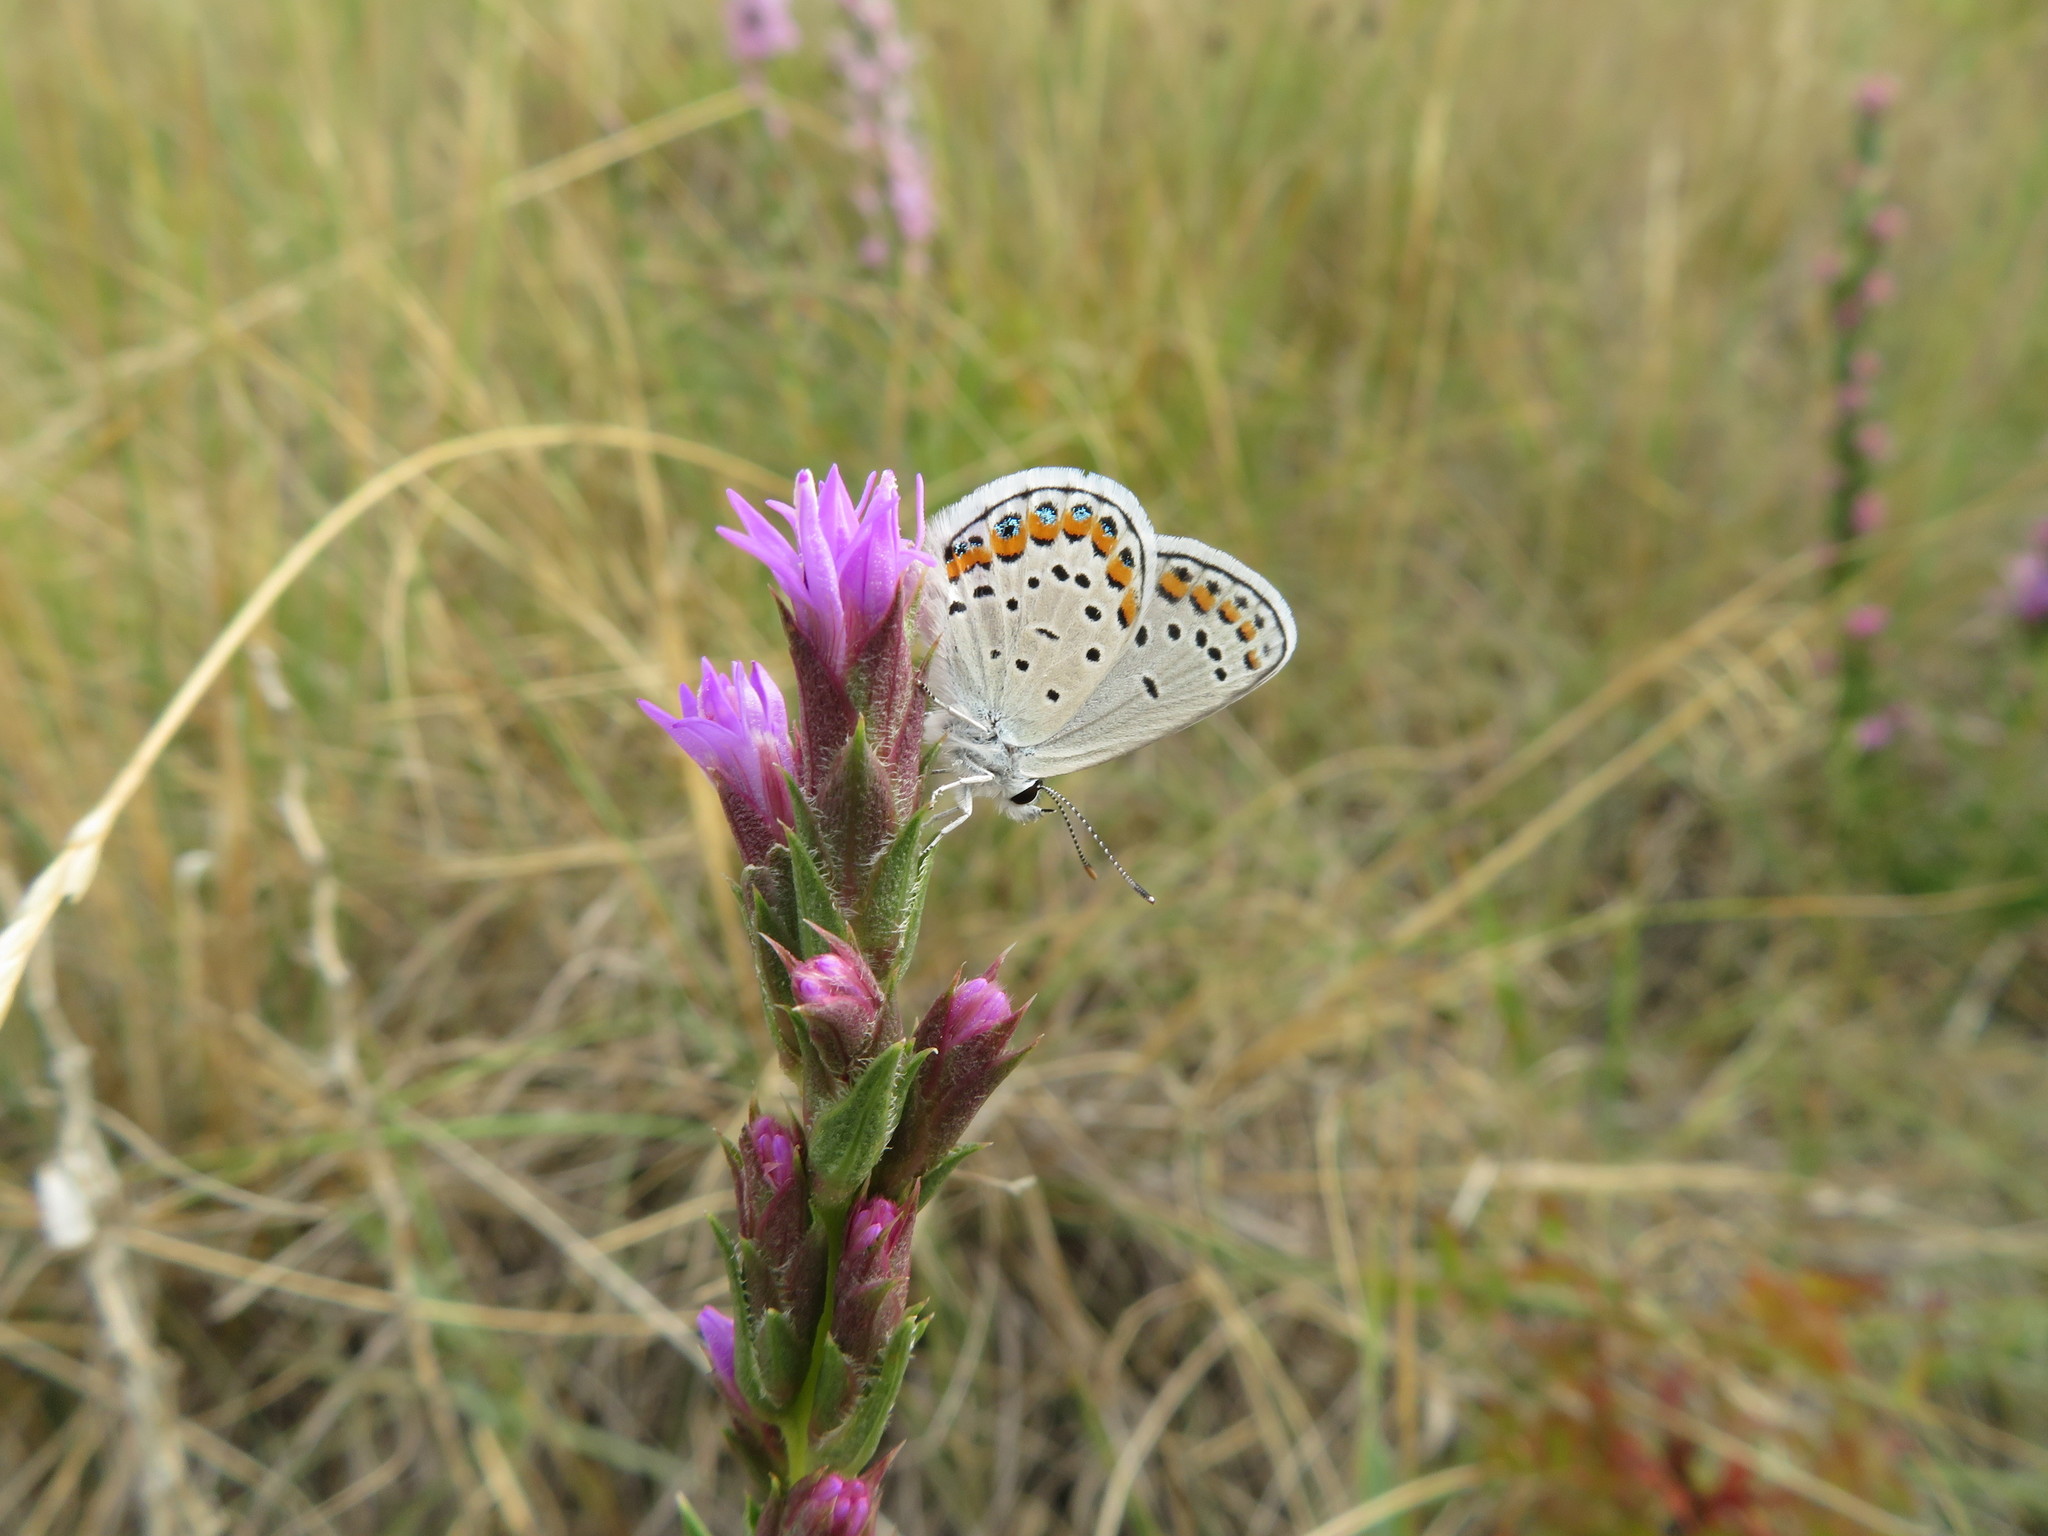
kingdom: Animalia
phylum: Arthropoda
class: Insecta
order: Lepidoptera
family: Lycaenidae
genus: Lycaeides
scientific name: Lycaeides melissa
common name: Melissa blue
